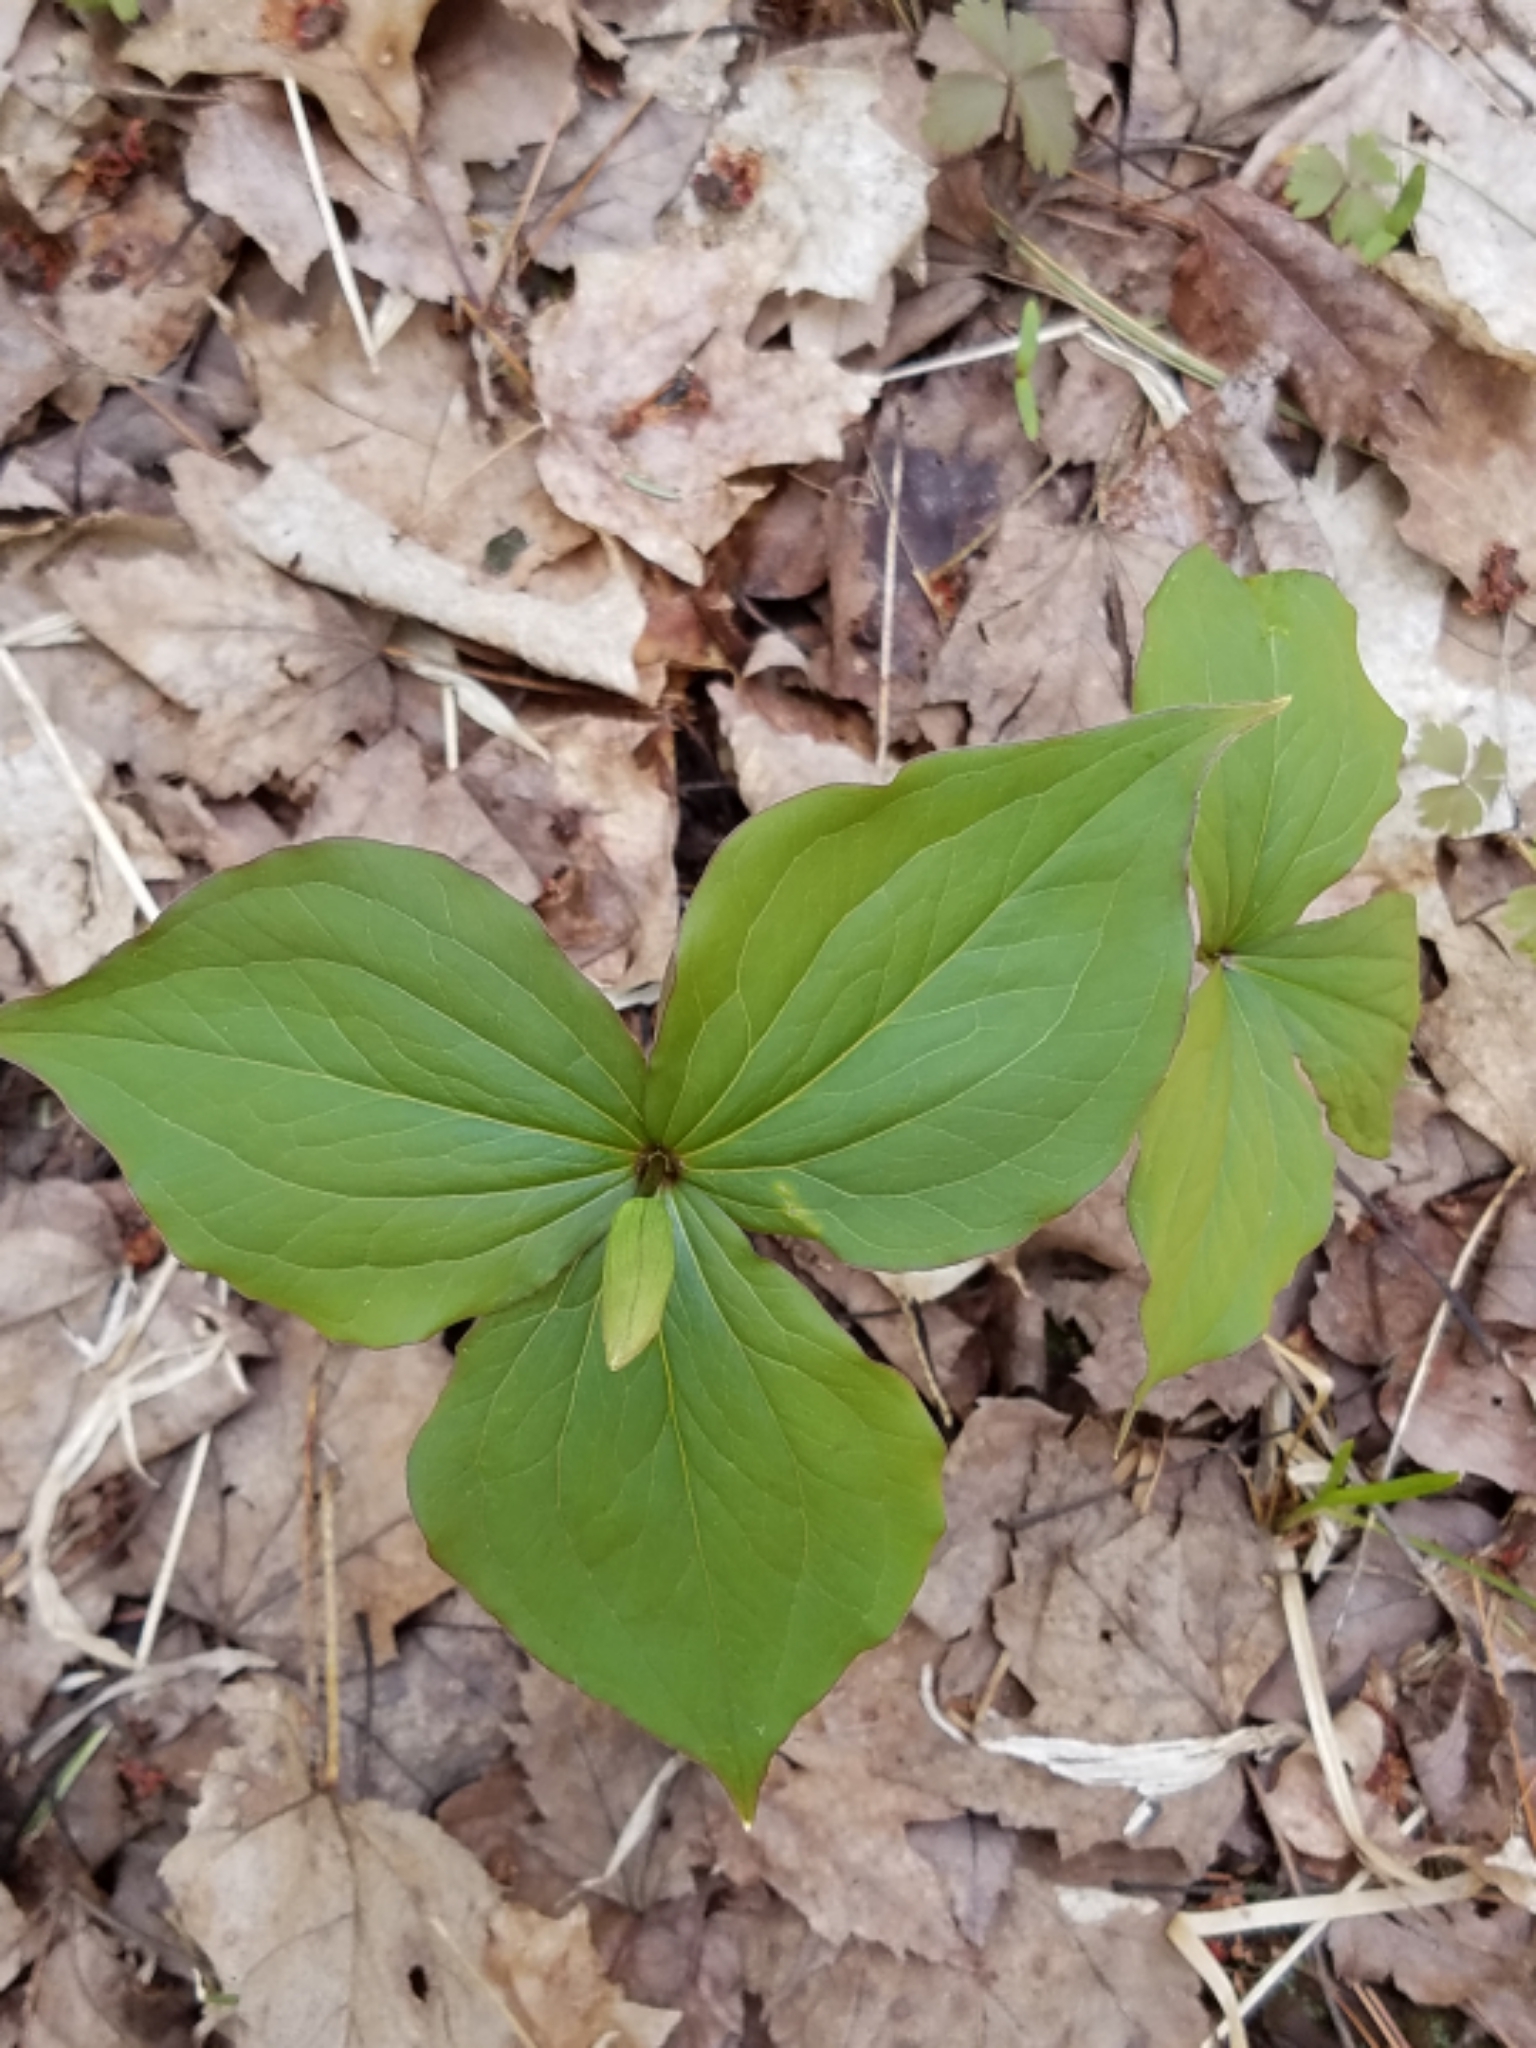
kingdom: Plantae
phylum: Tracheophyta
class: Liliopsida
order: Liliales
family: Melanthiaceae
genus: Trillium
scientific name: Trillium grandiflorum
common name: Great white trillium
